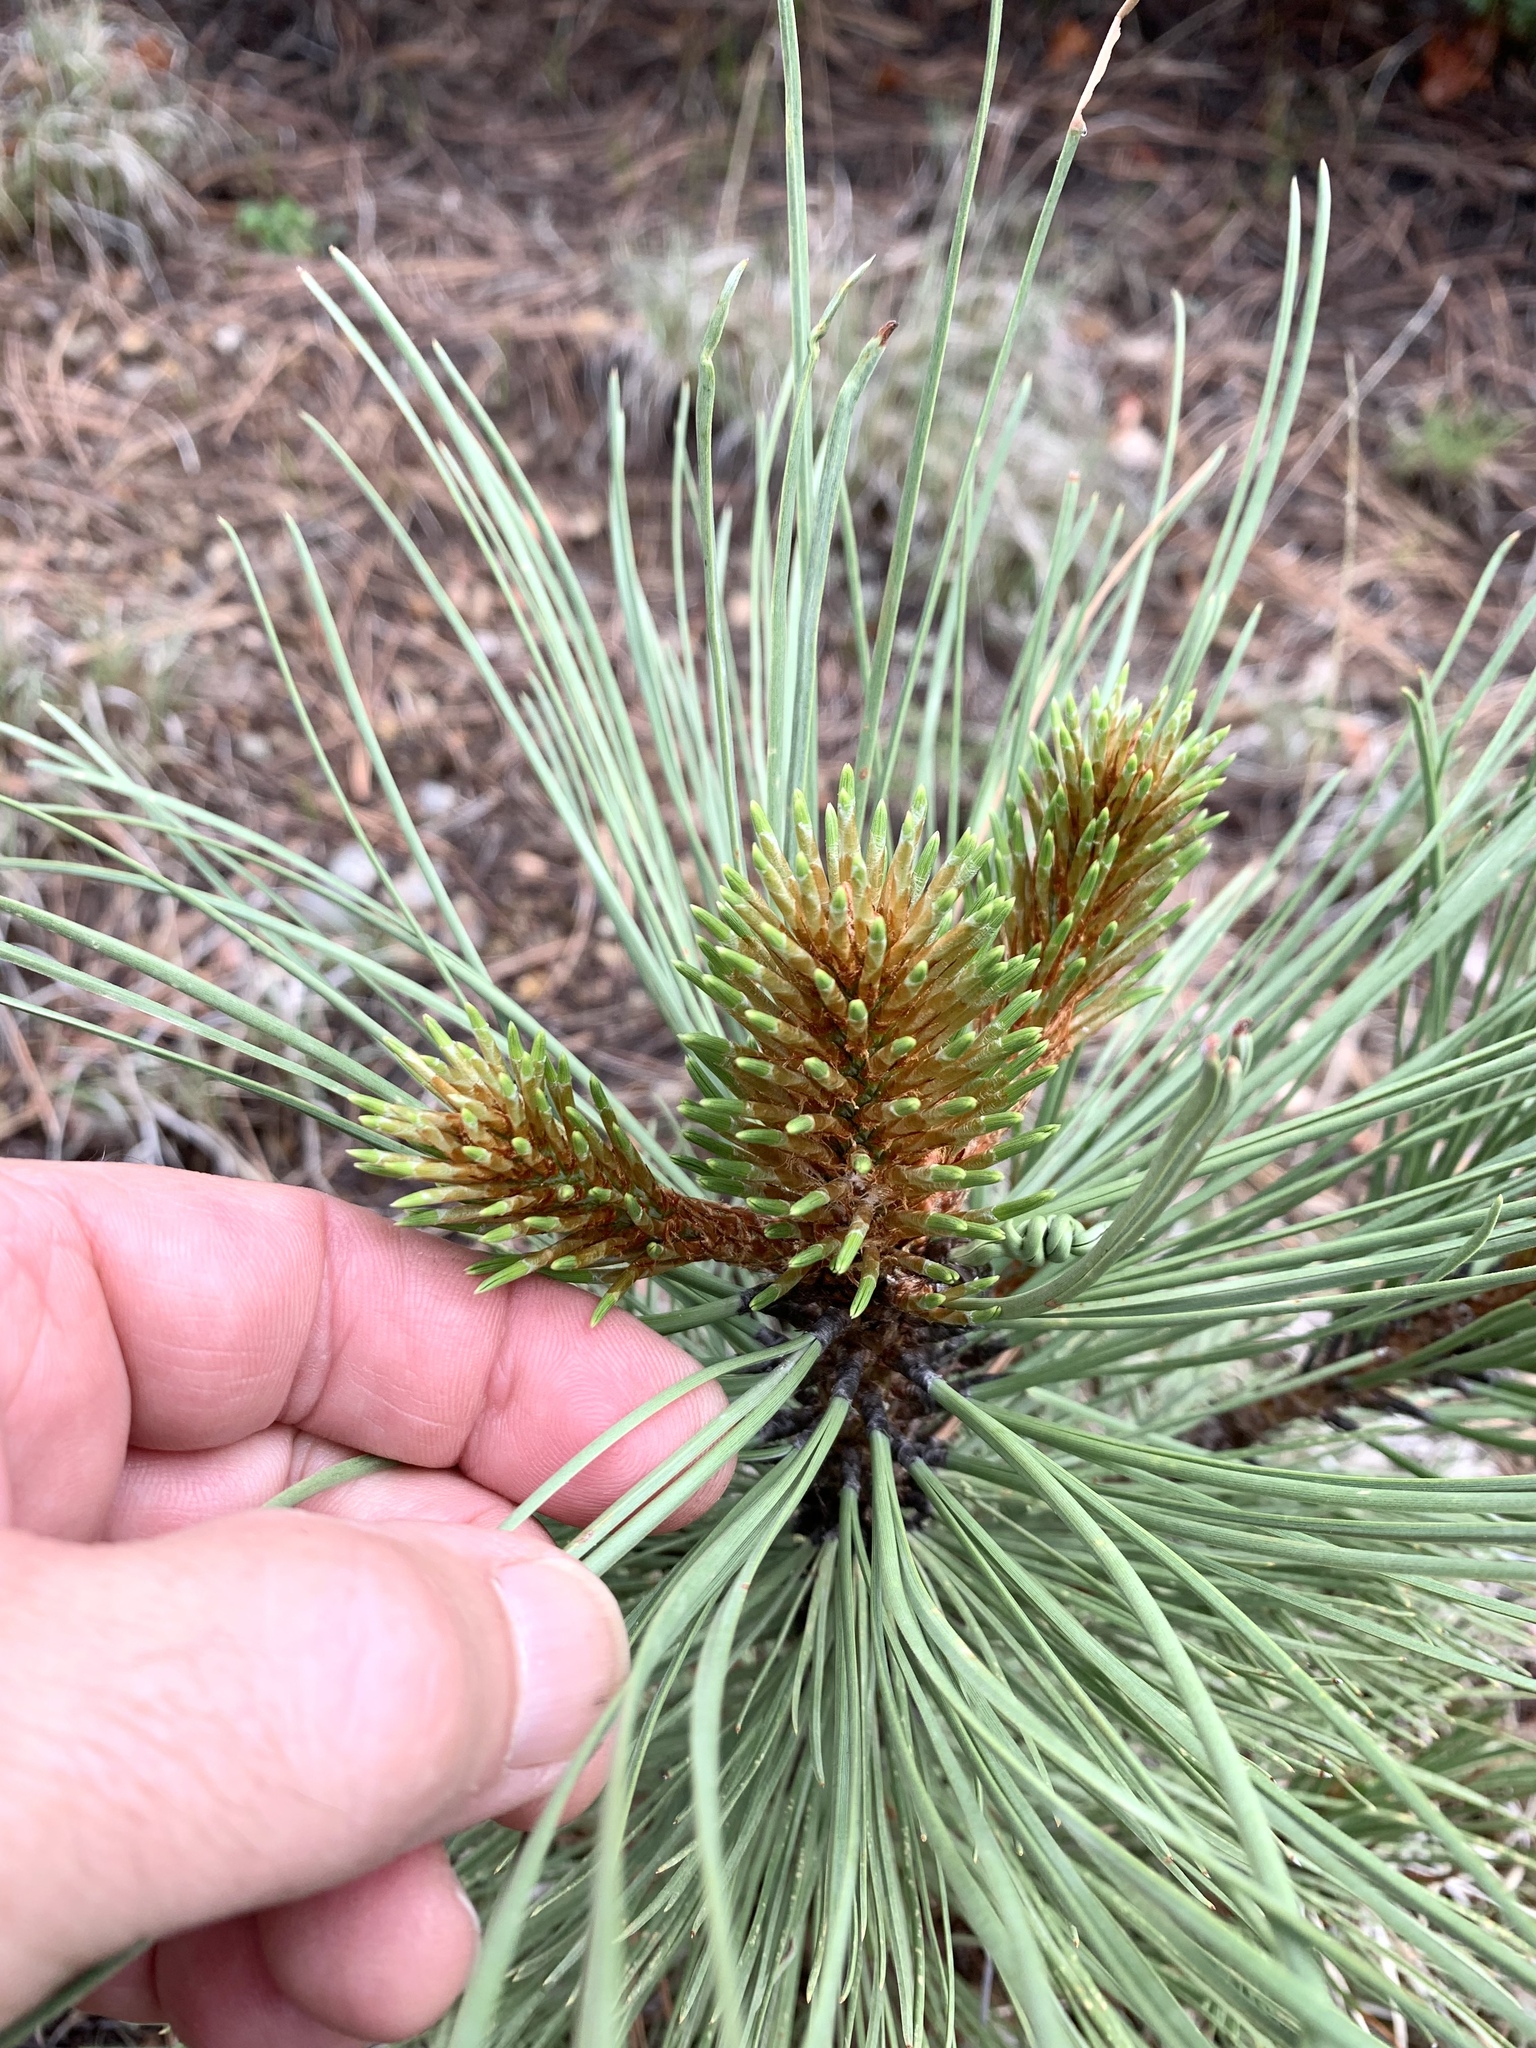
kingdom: Plantae
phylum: Tracheophyta
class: Pinopsida
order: Pinales
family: Pinaceae
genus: Pinus
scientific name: Pinus ponderosa
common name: Western yellow-pine
